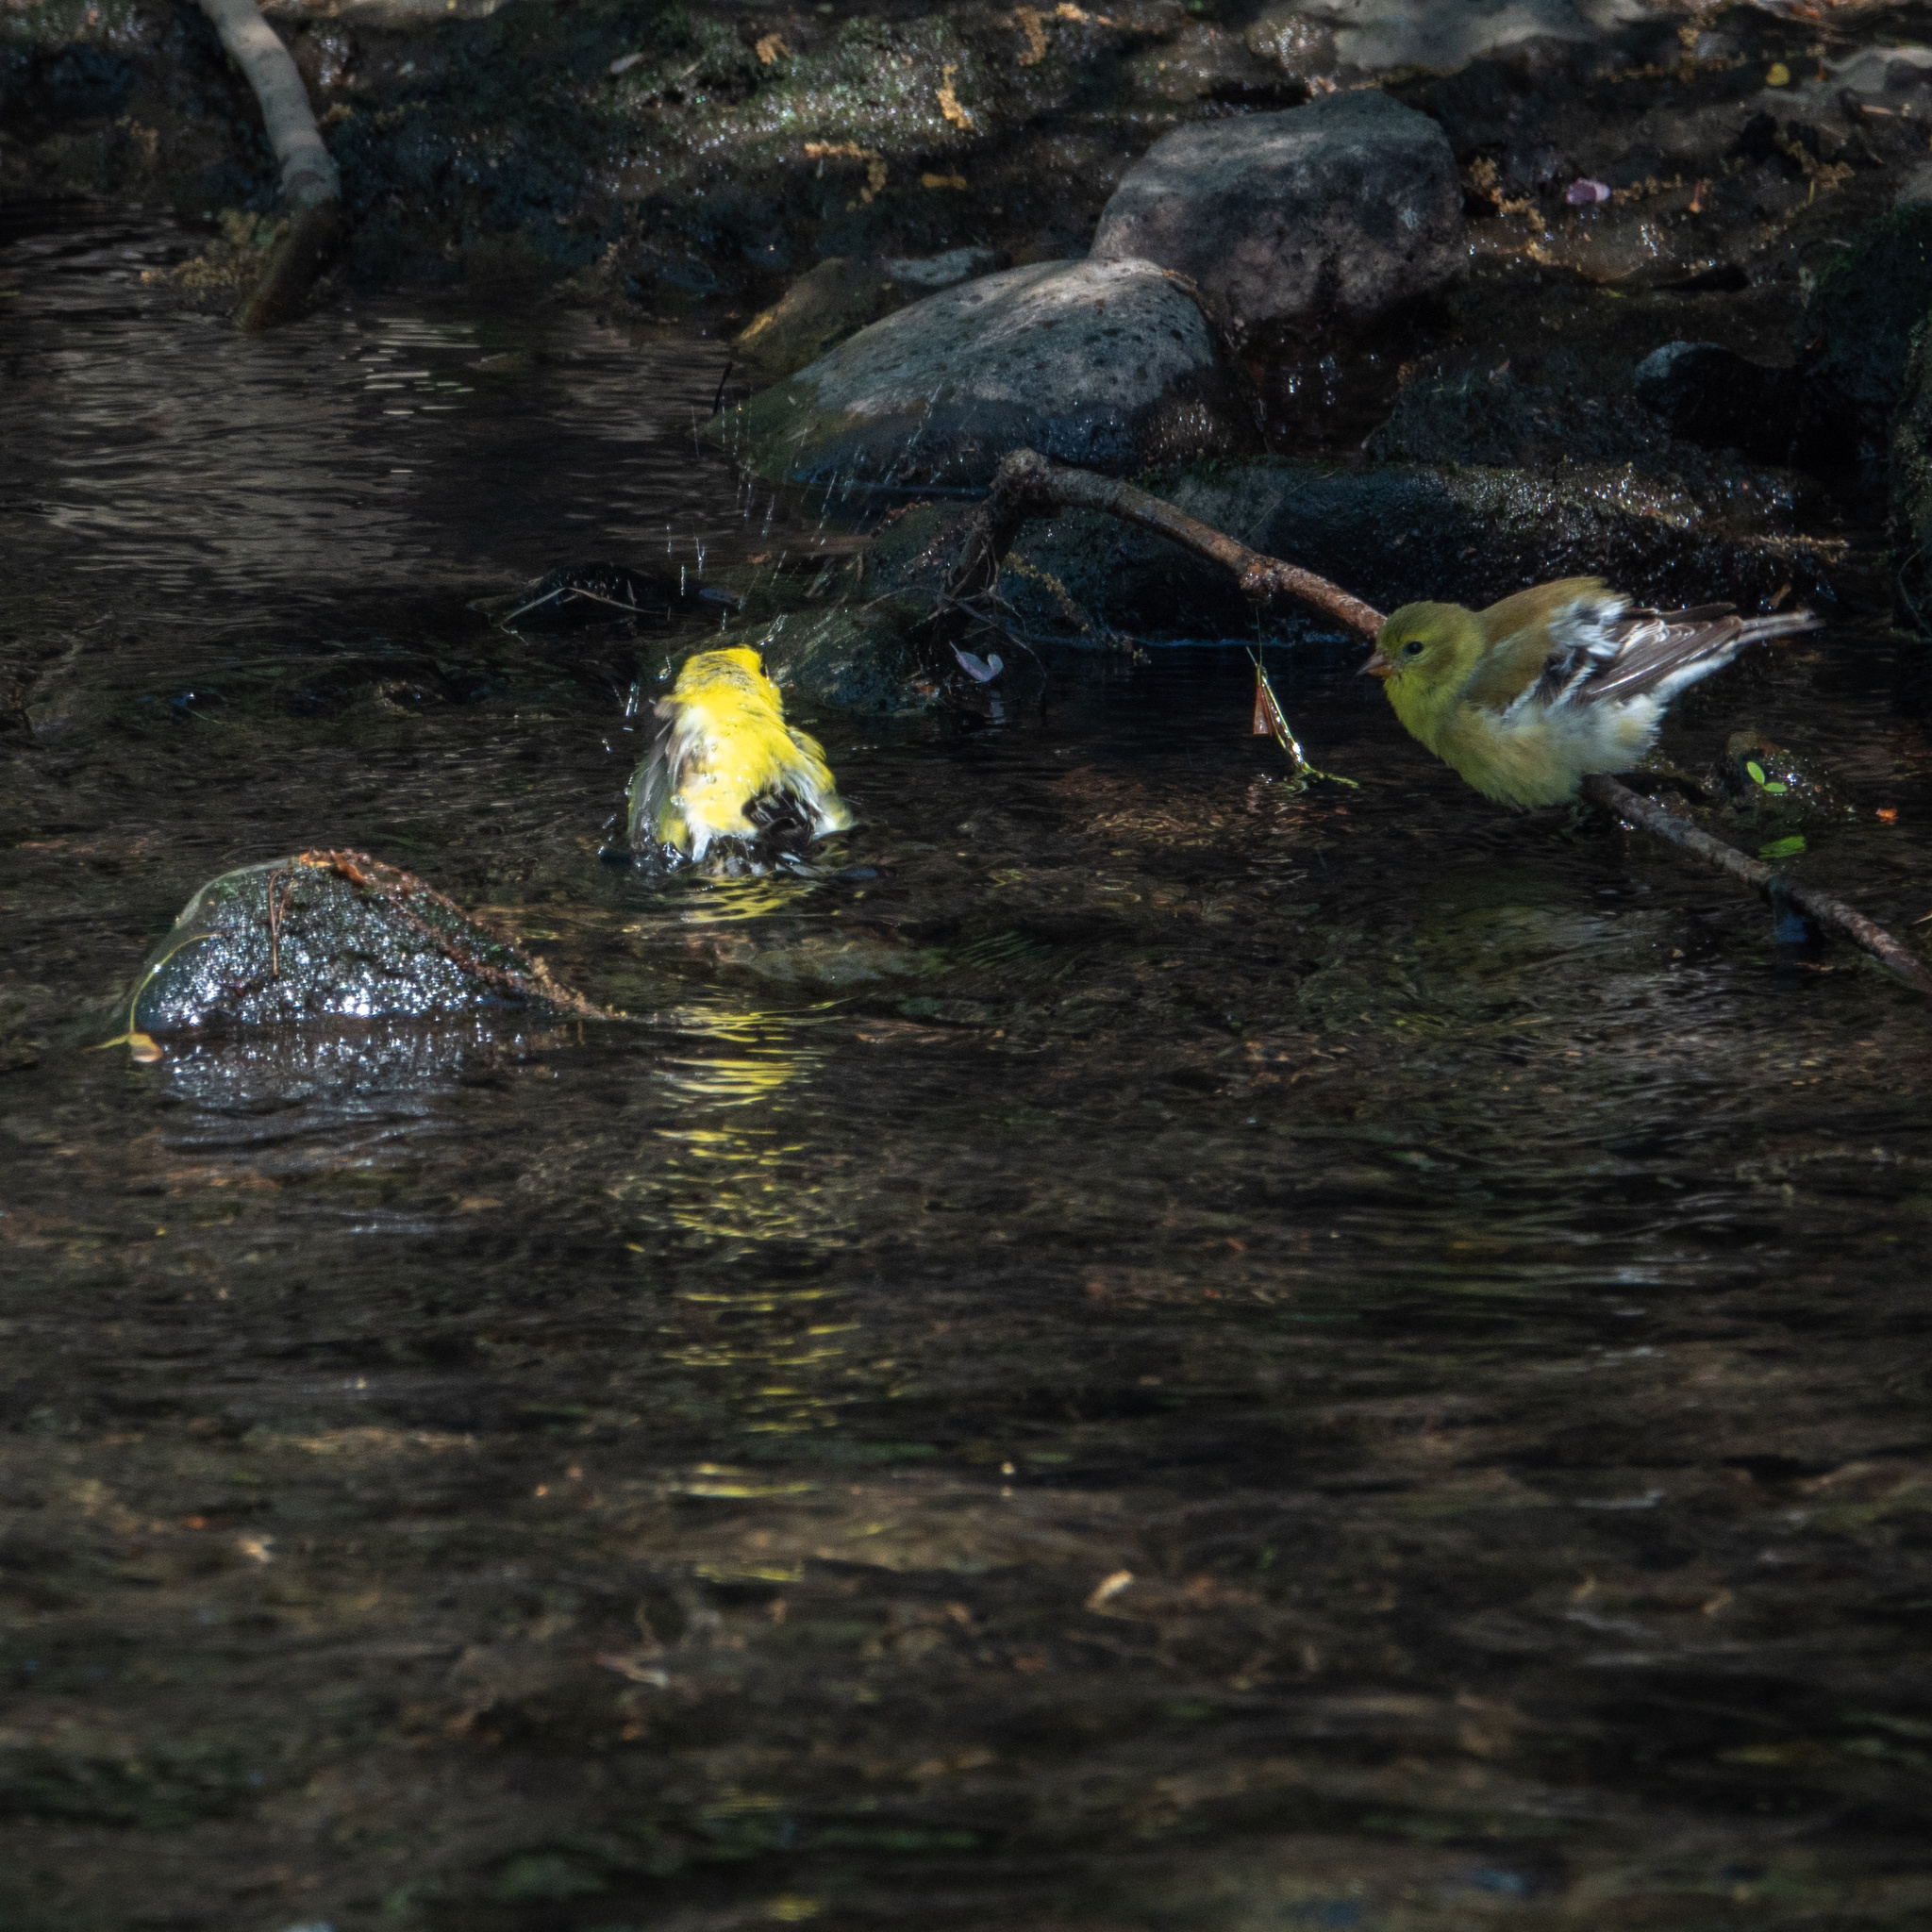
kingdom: Animalia
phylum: Chordata
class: Aves
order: Passeriformes
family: Fringillidae
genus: Spinus
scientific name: Spinus tristis
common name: American goldfinch
